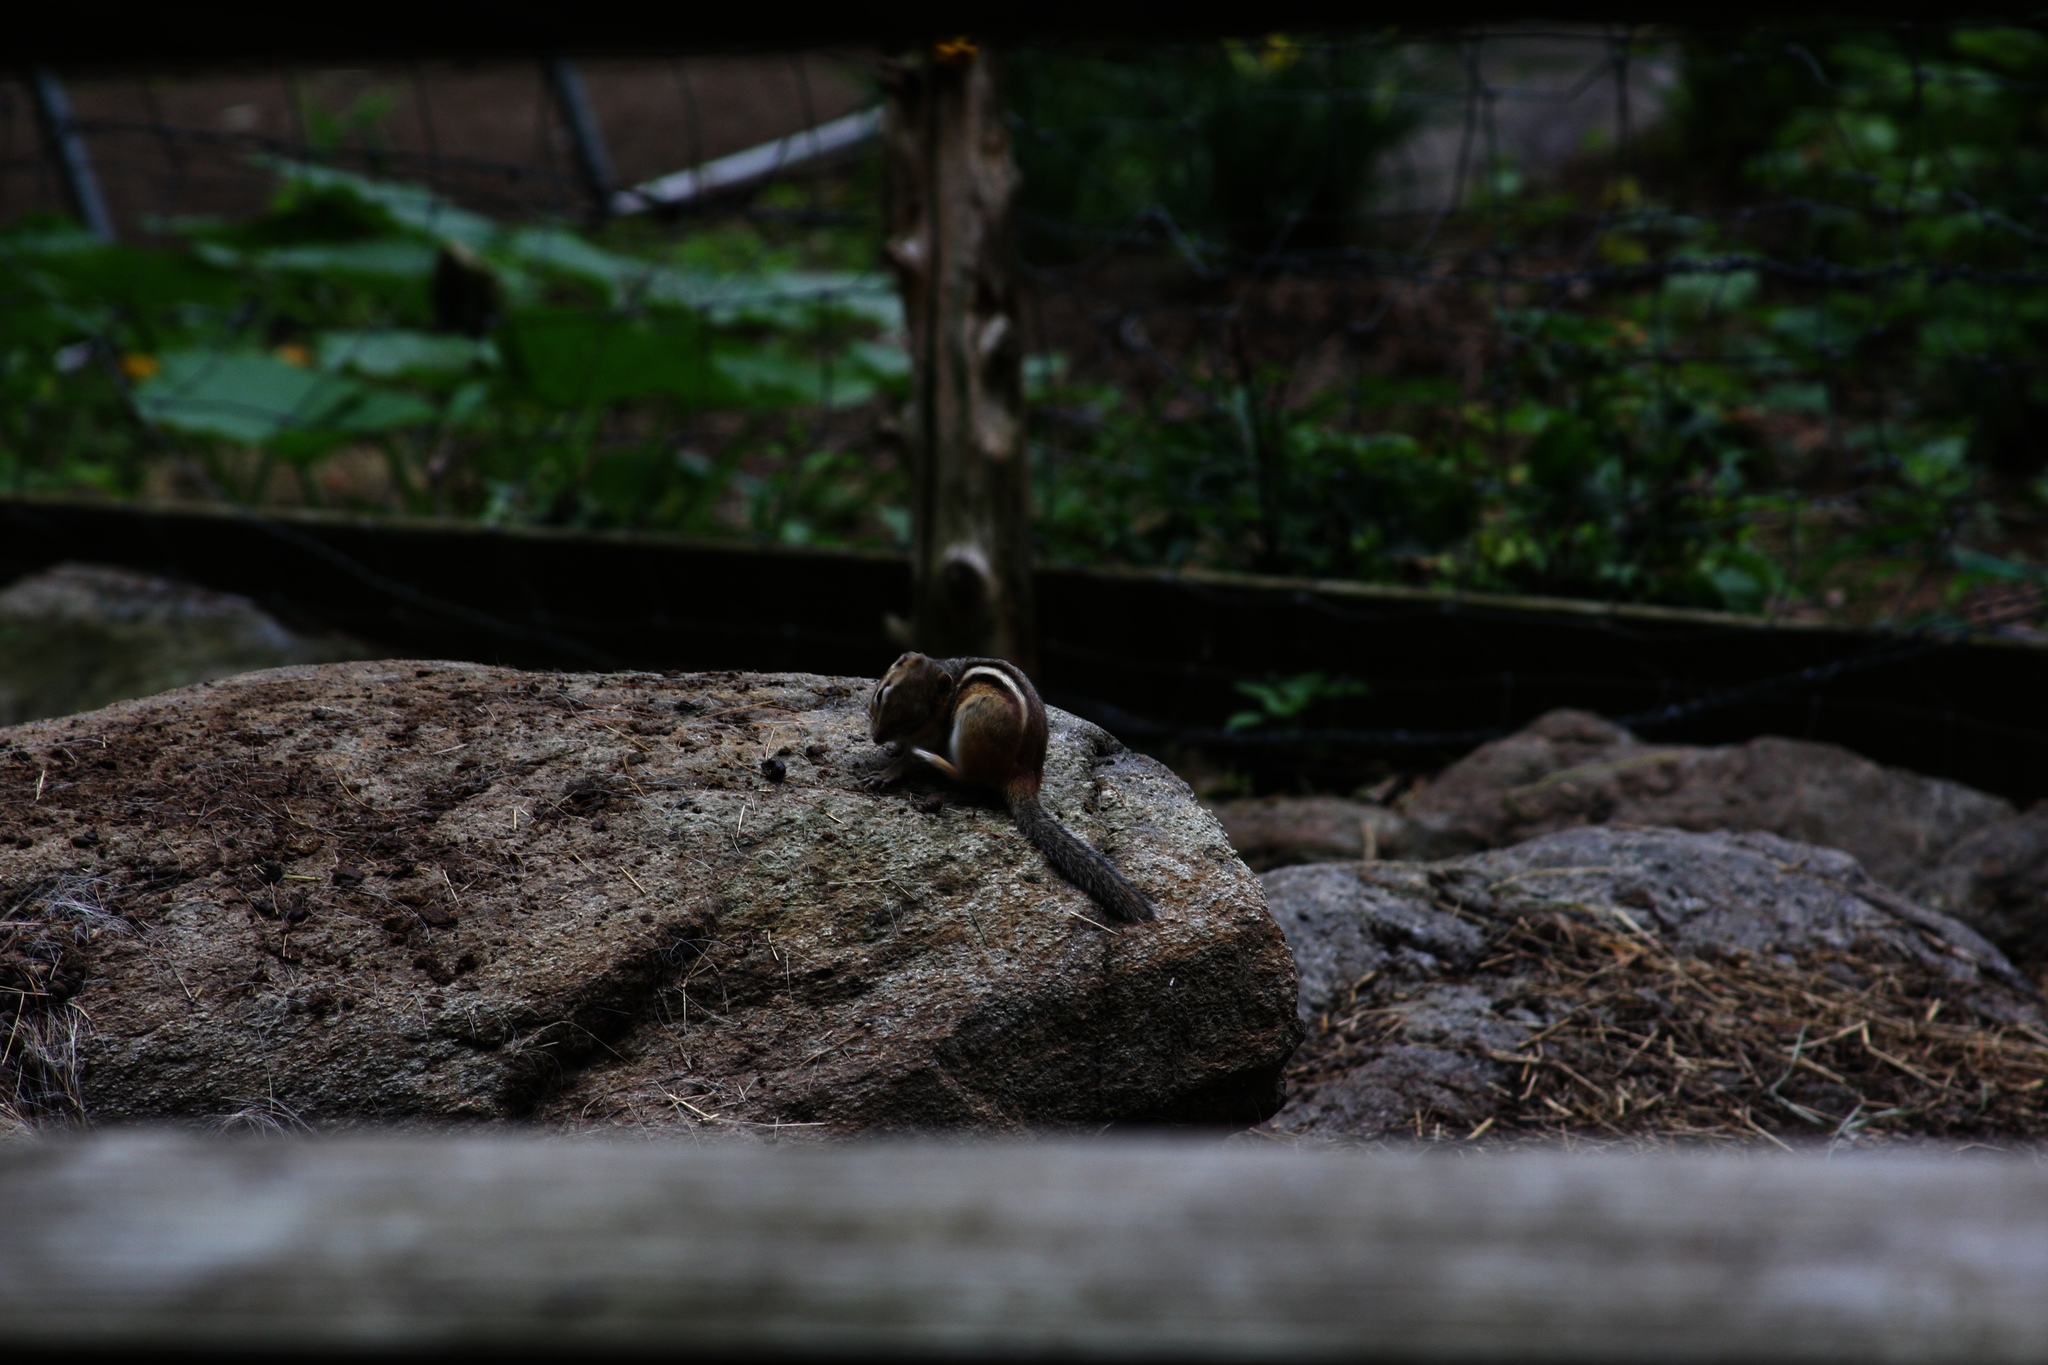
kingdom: Animalia
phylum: Chordata
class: Mammalia
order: Rodentia
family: Sciuridae
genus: Tamias
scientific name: Tamias striatus
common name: Eastern chipmunk
